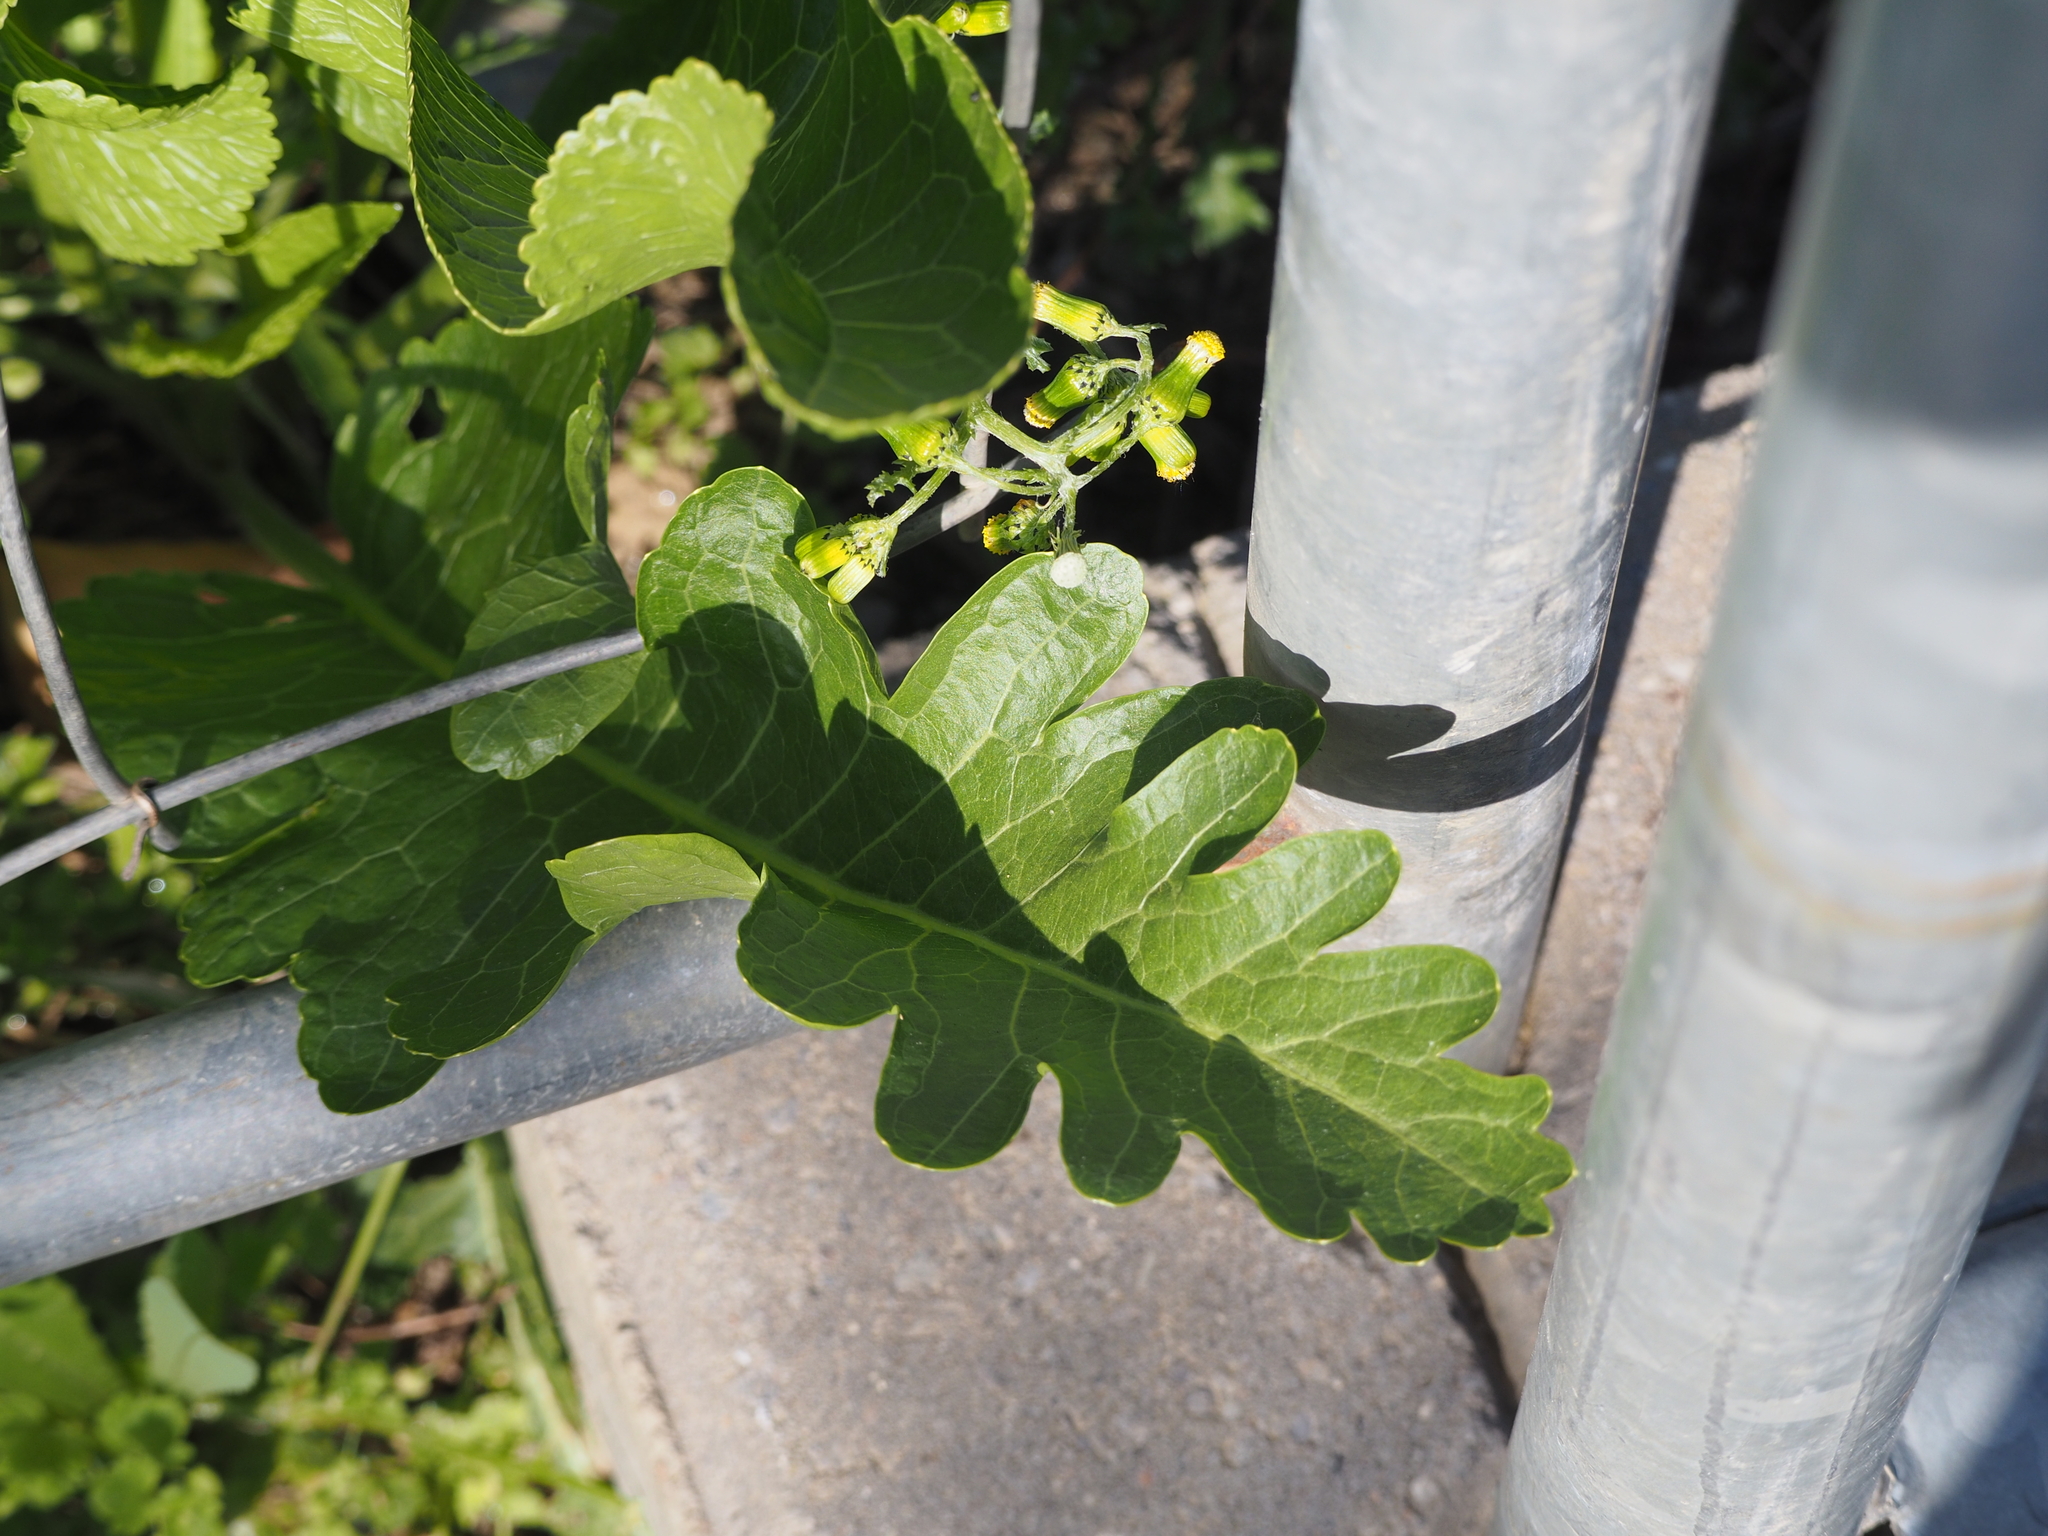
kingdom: Plantae
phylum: Tracheophyta
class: Magnoliopsida
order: Brassicales
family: Brassicaceae
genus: Armoracia
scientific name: Armoracia rusticana
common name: Horseradish
